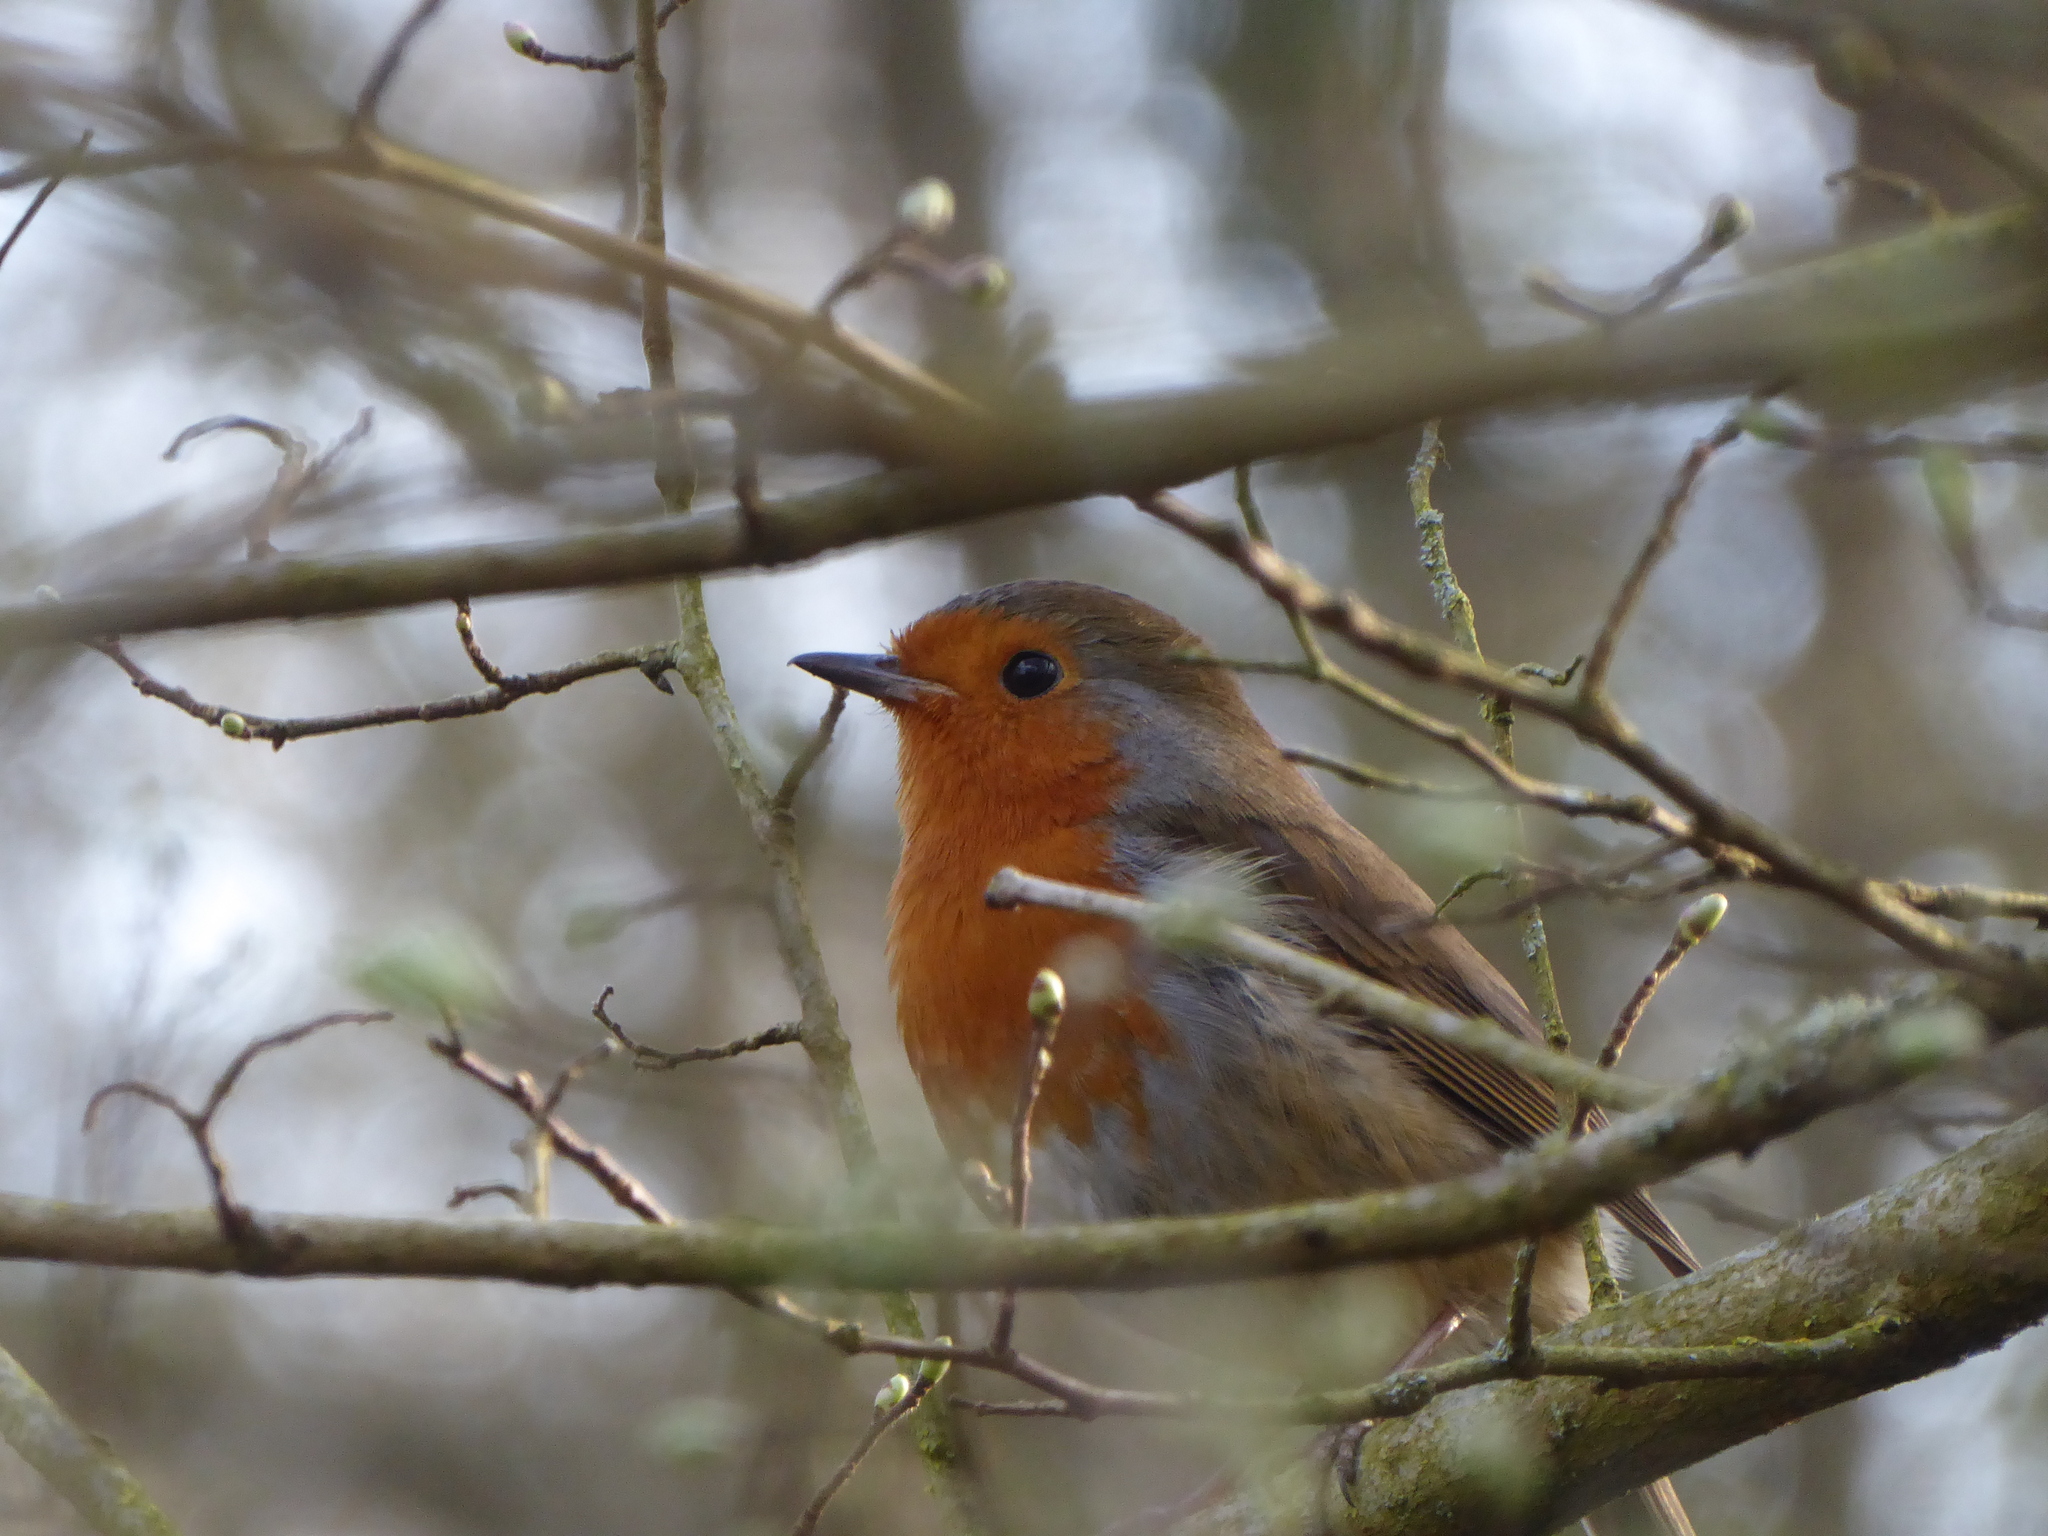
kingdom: Animalia
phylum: Chordata
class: Aves
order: Passeriformes
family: Muscicapidae
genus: Erithacus
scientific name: Erithacus rubecula
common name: European robin
